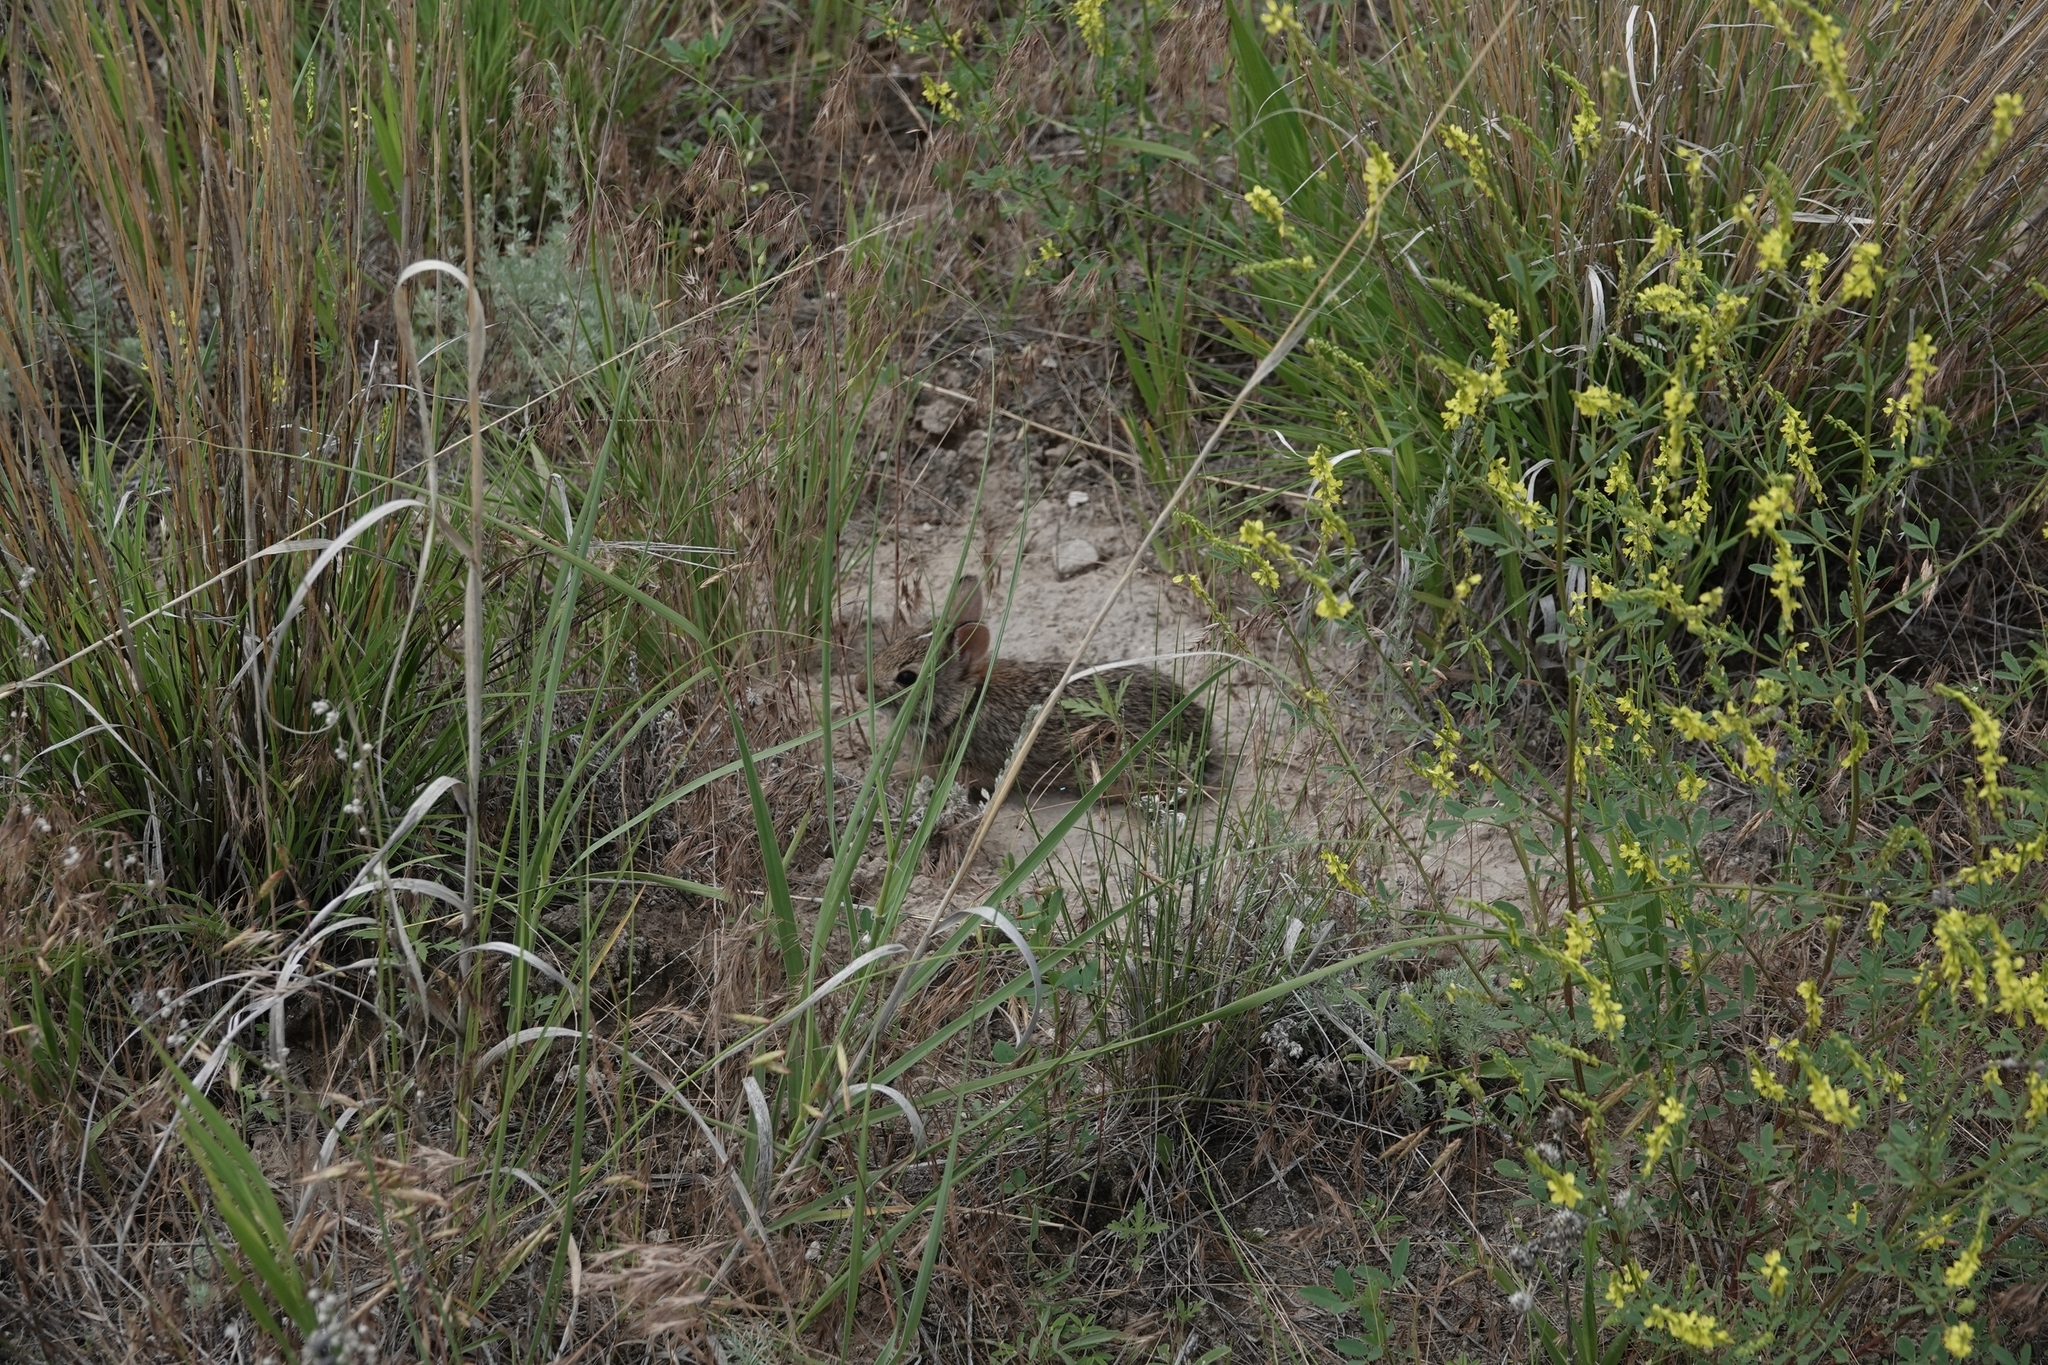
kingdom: Animalia
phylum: Chordata
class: Mammalia
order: Lagomorpha
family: Leporidae
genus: Sylvilagus
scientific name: Sylvilagus floridanus
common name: Eastern cottontail
